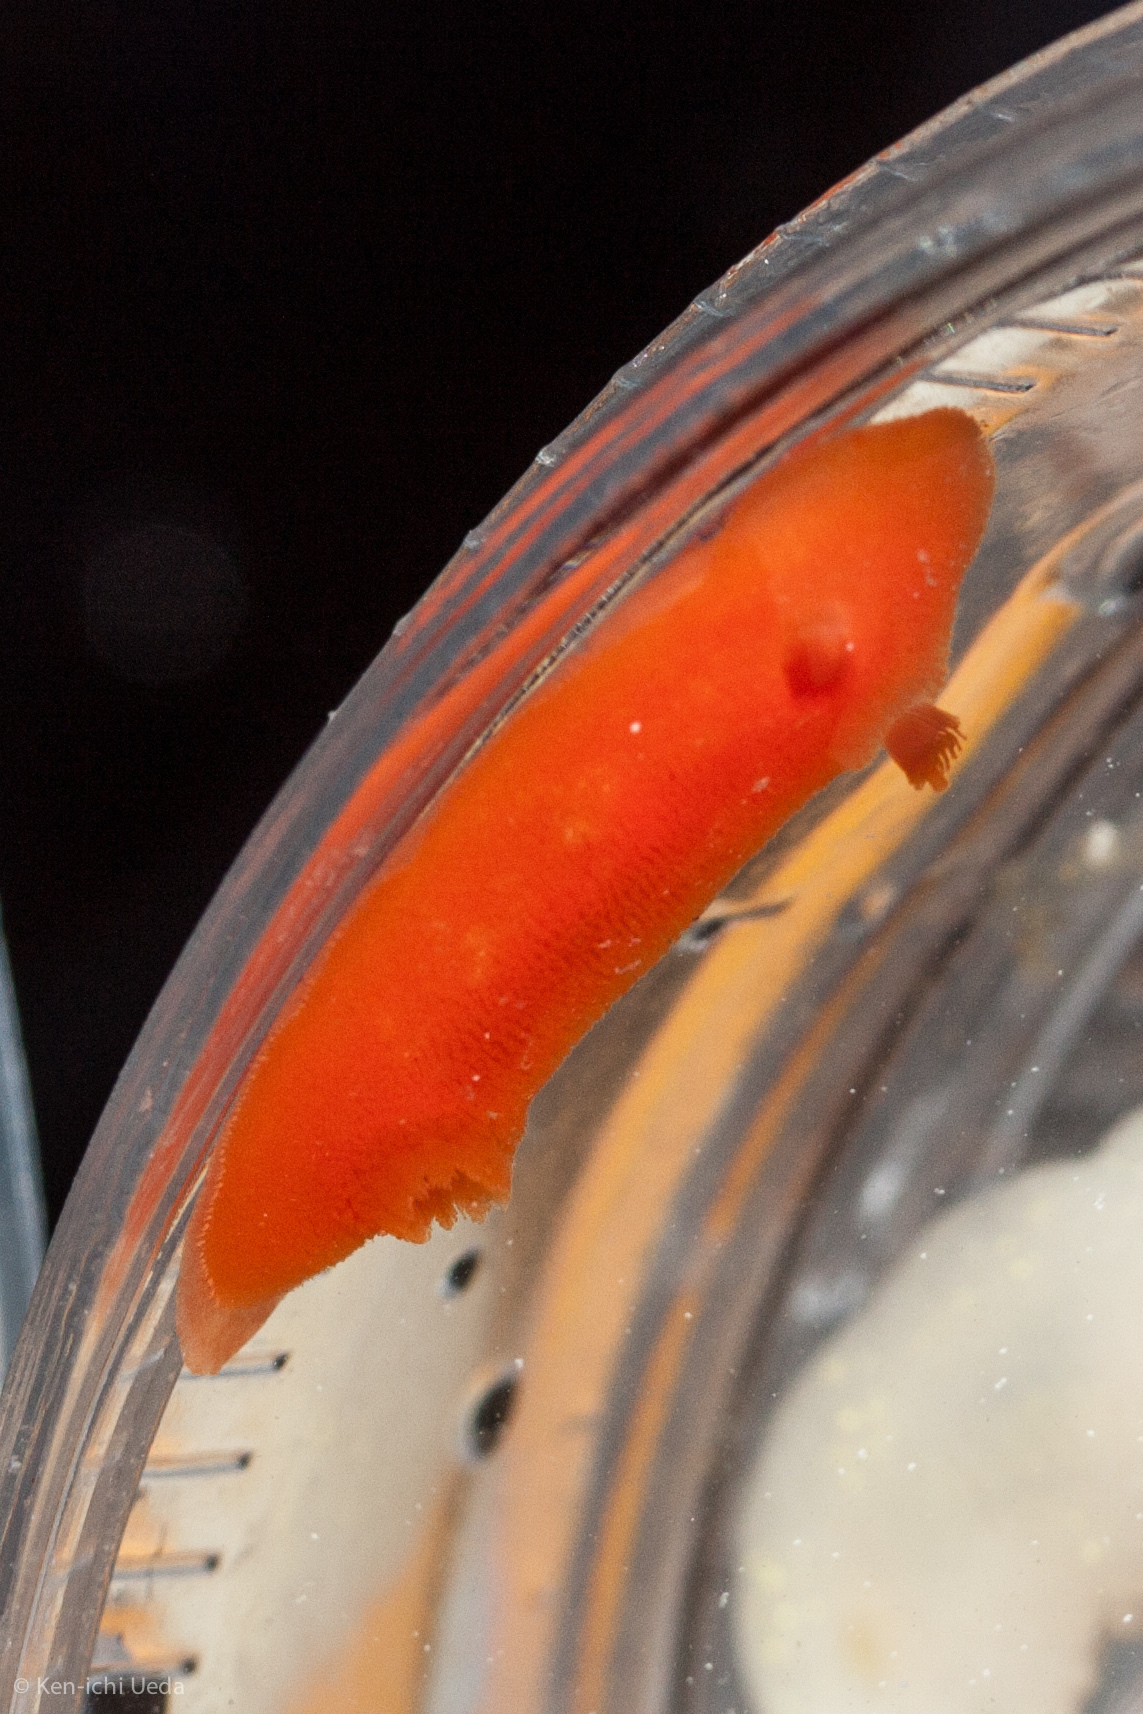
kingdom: Animalia
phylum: Mollusca
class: Gastropoda
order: Nudibranchia
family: Discodorididae
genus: Rostanga
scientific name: Rostanga pulchra
